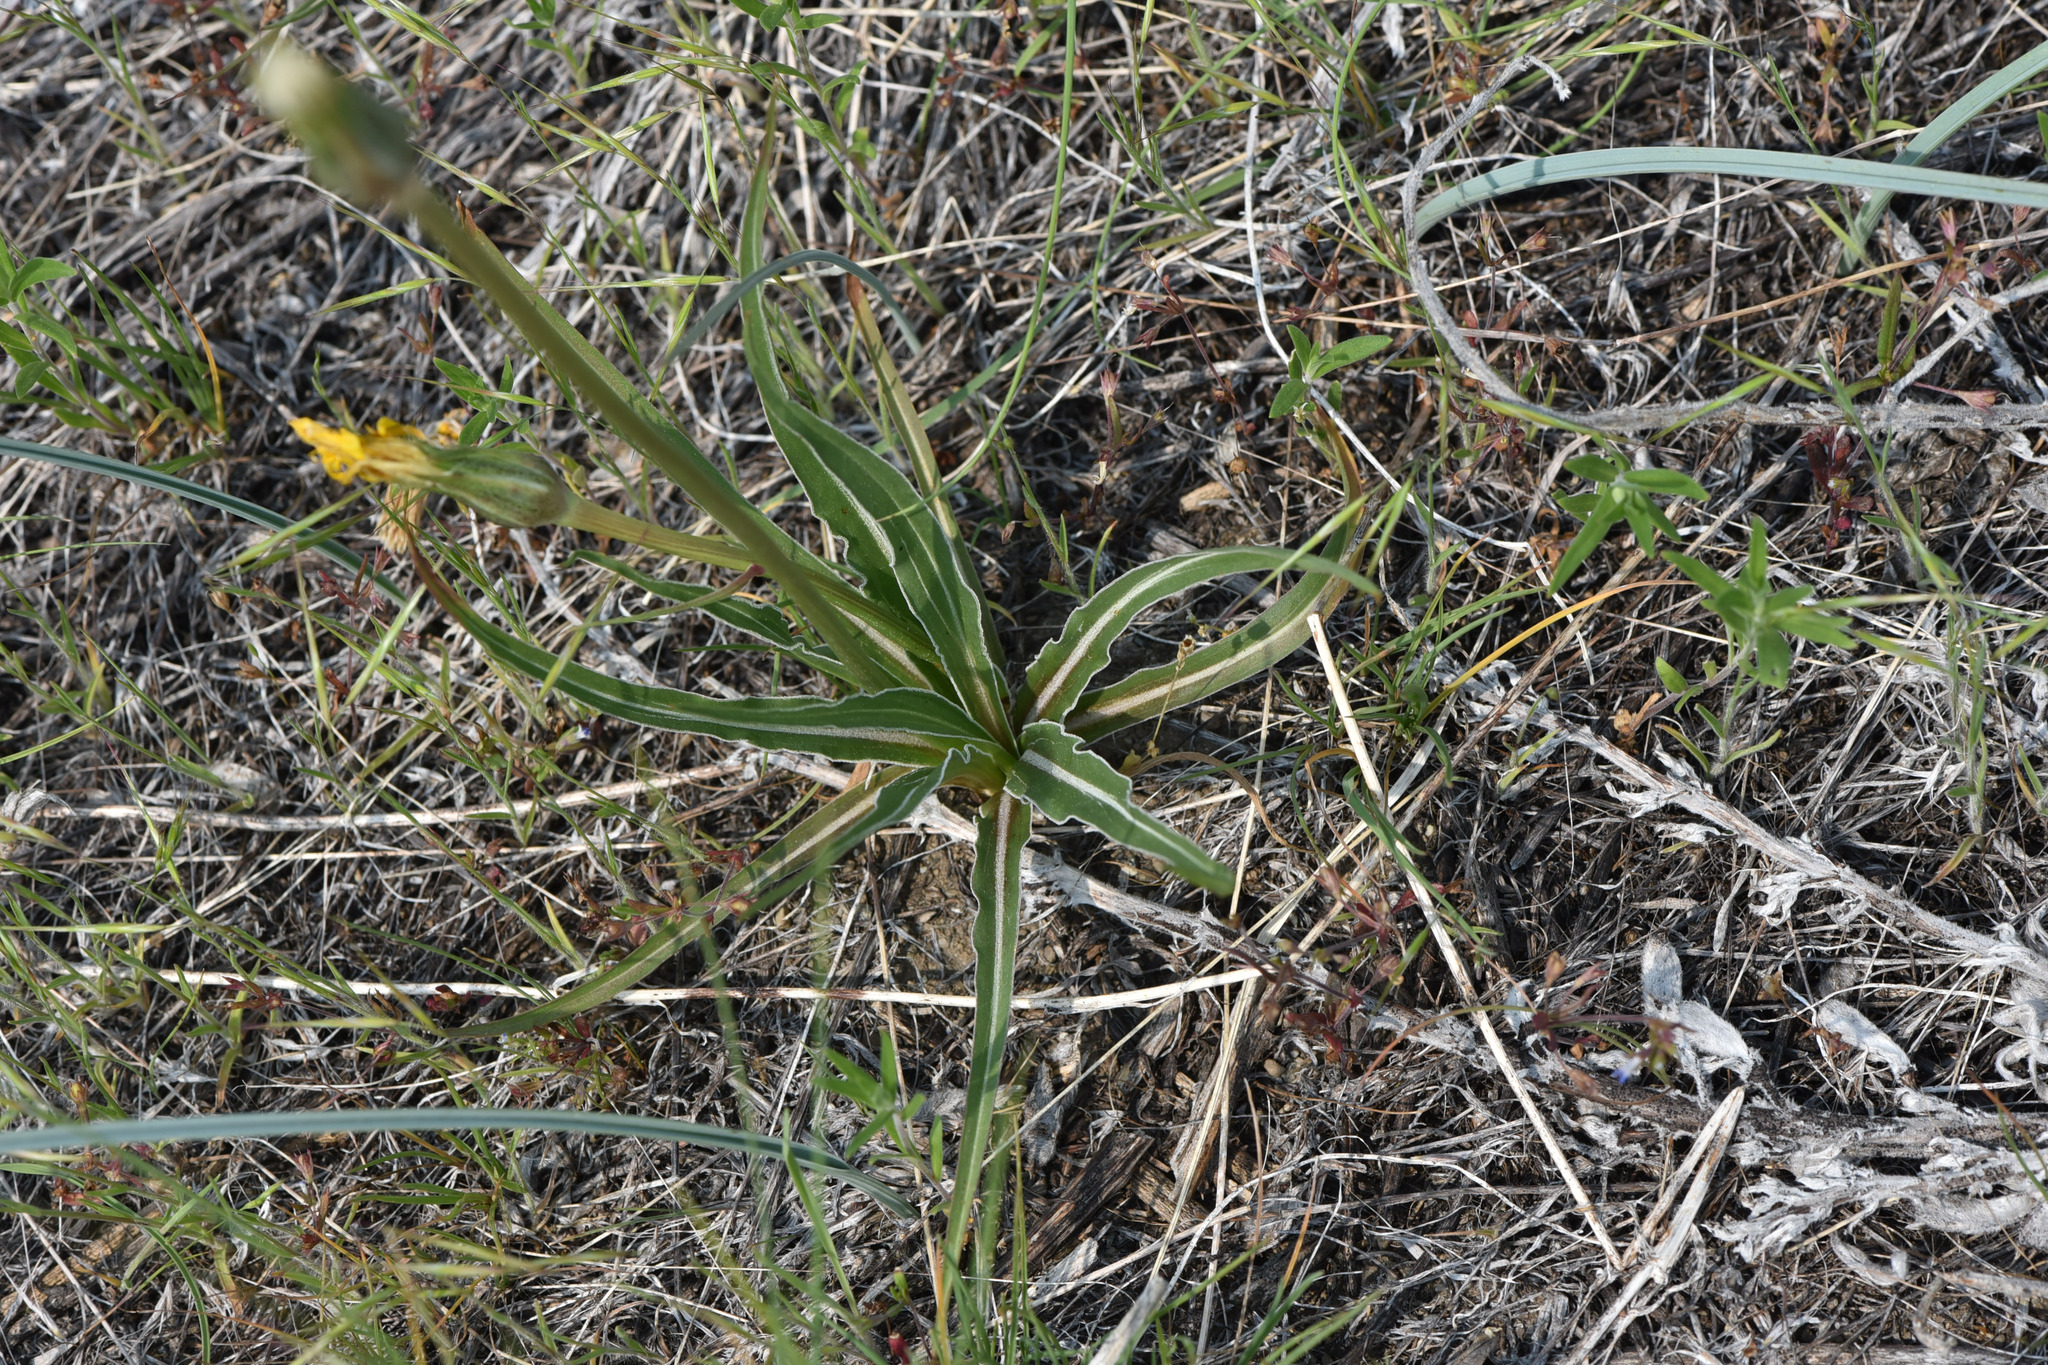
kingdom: Plantae
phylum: Tracheophyta
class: Magnoliopsida
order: Asterales
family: Asteraceae
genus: Microseris
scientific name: Microseris troximoides
